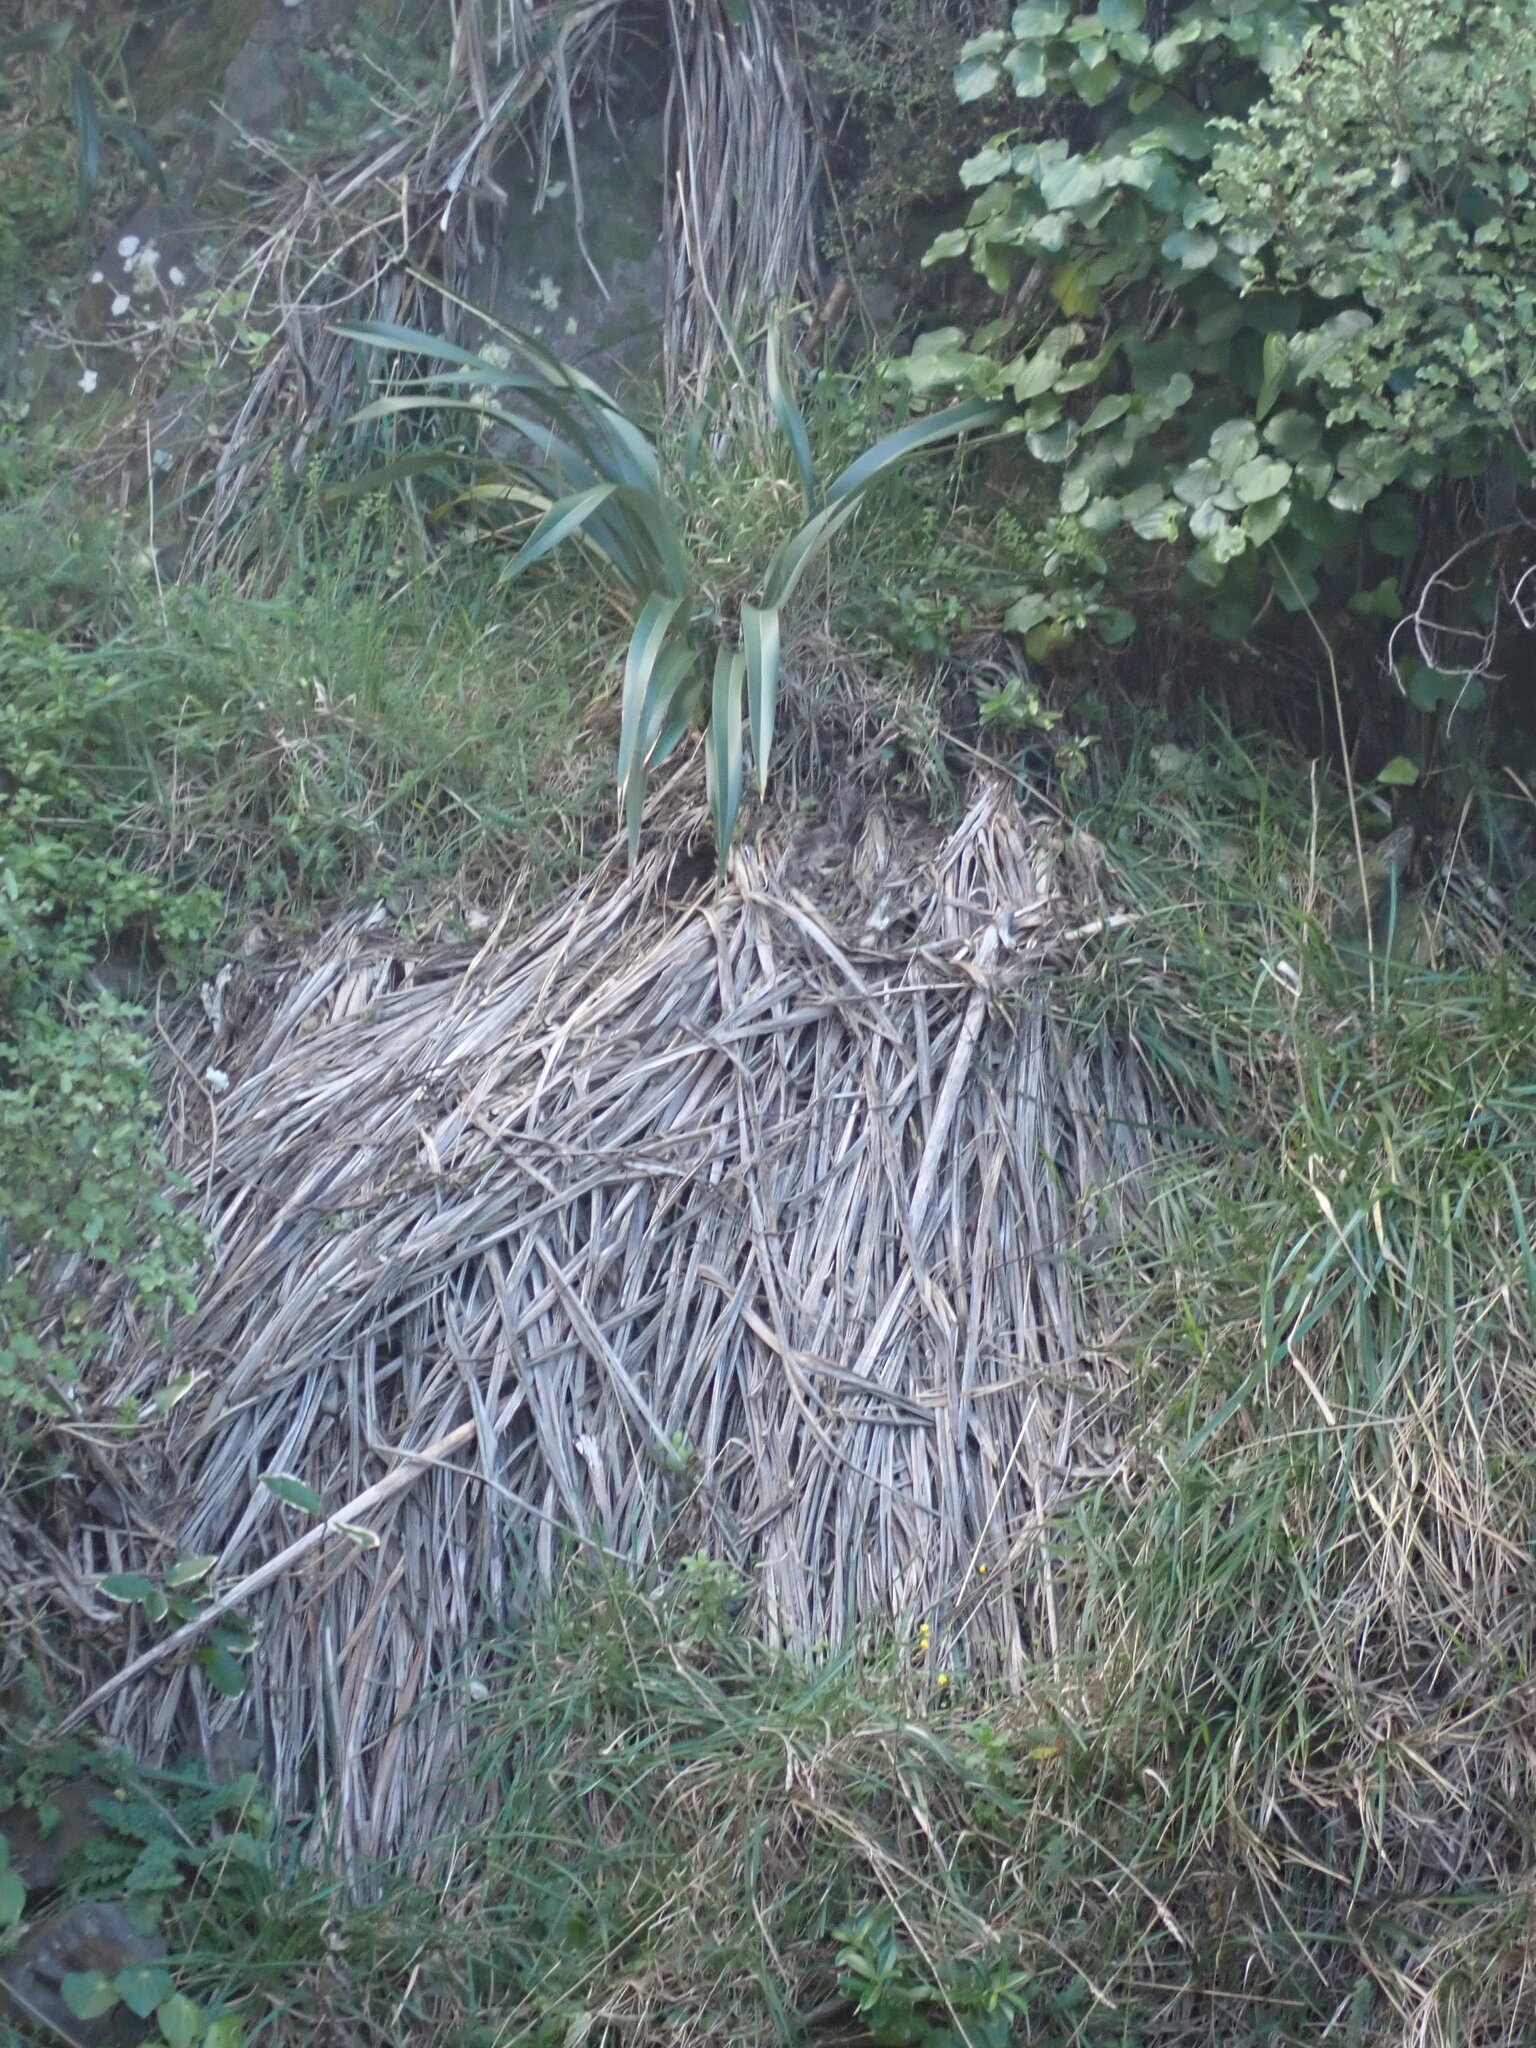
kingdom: Plantae
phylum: Tracheophyta
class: Liliopsida
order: Asparagales
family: Asphodelaceae
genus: Phormium
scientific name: Phormium colensoi
